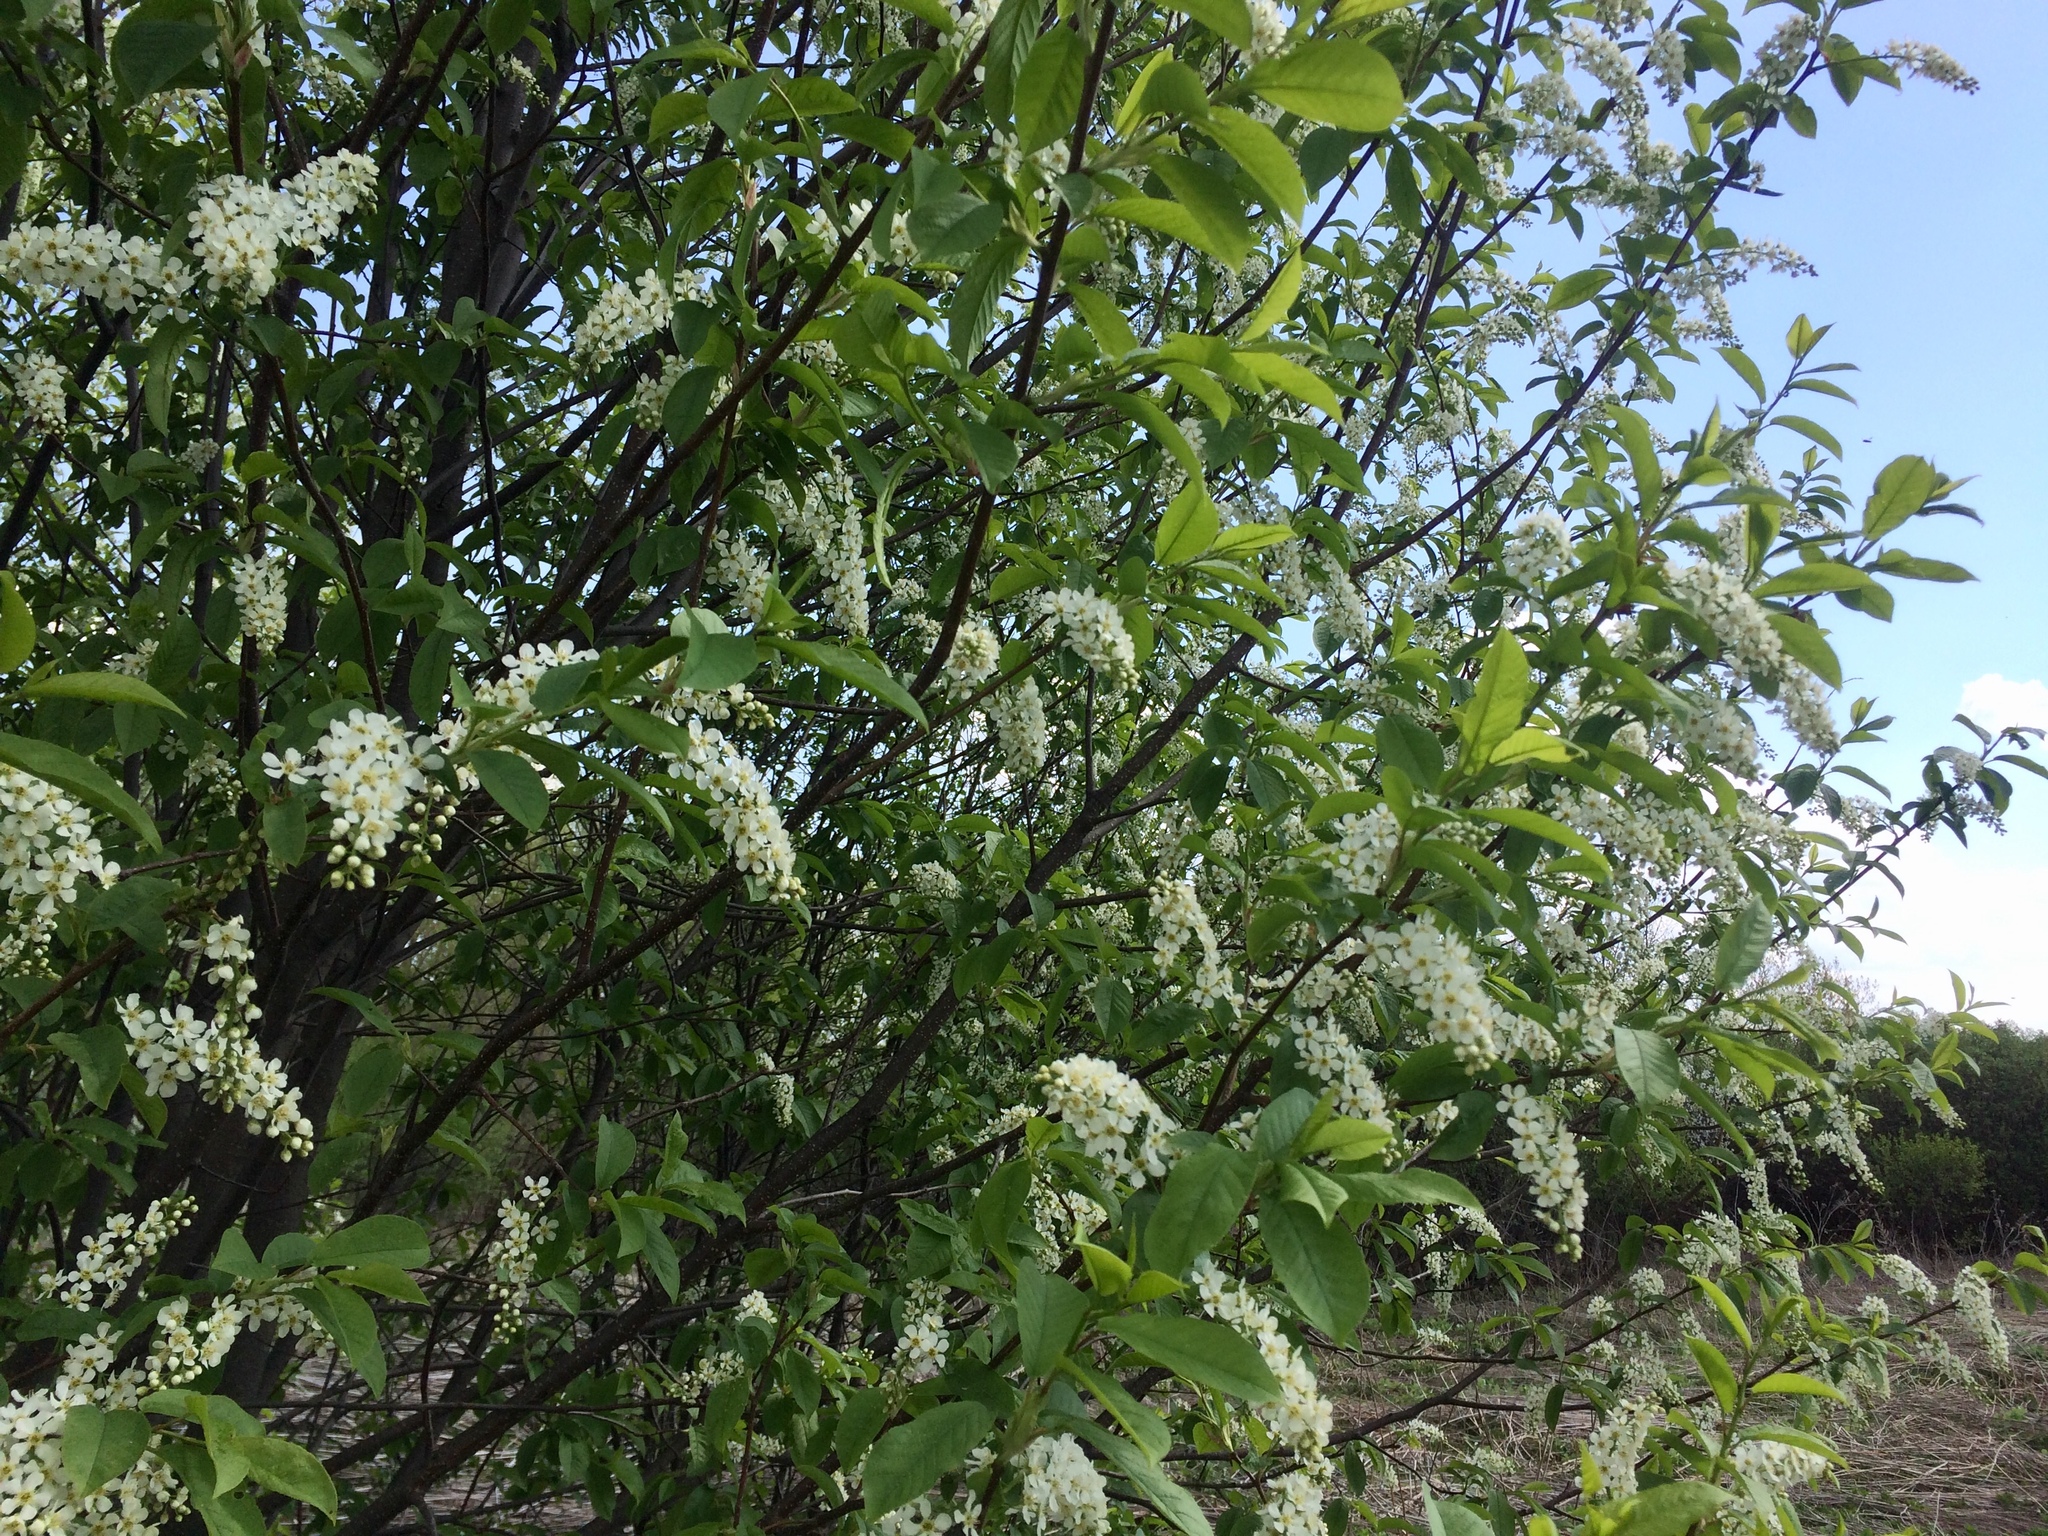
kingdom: Plantae
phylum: Tracheophyta
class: Magnoliopsida
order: Rosales
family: Rosaceae
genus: Prunus
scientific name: Prunus padus
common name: Bird cherry
